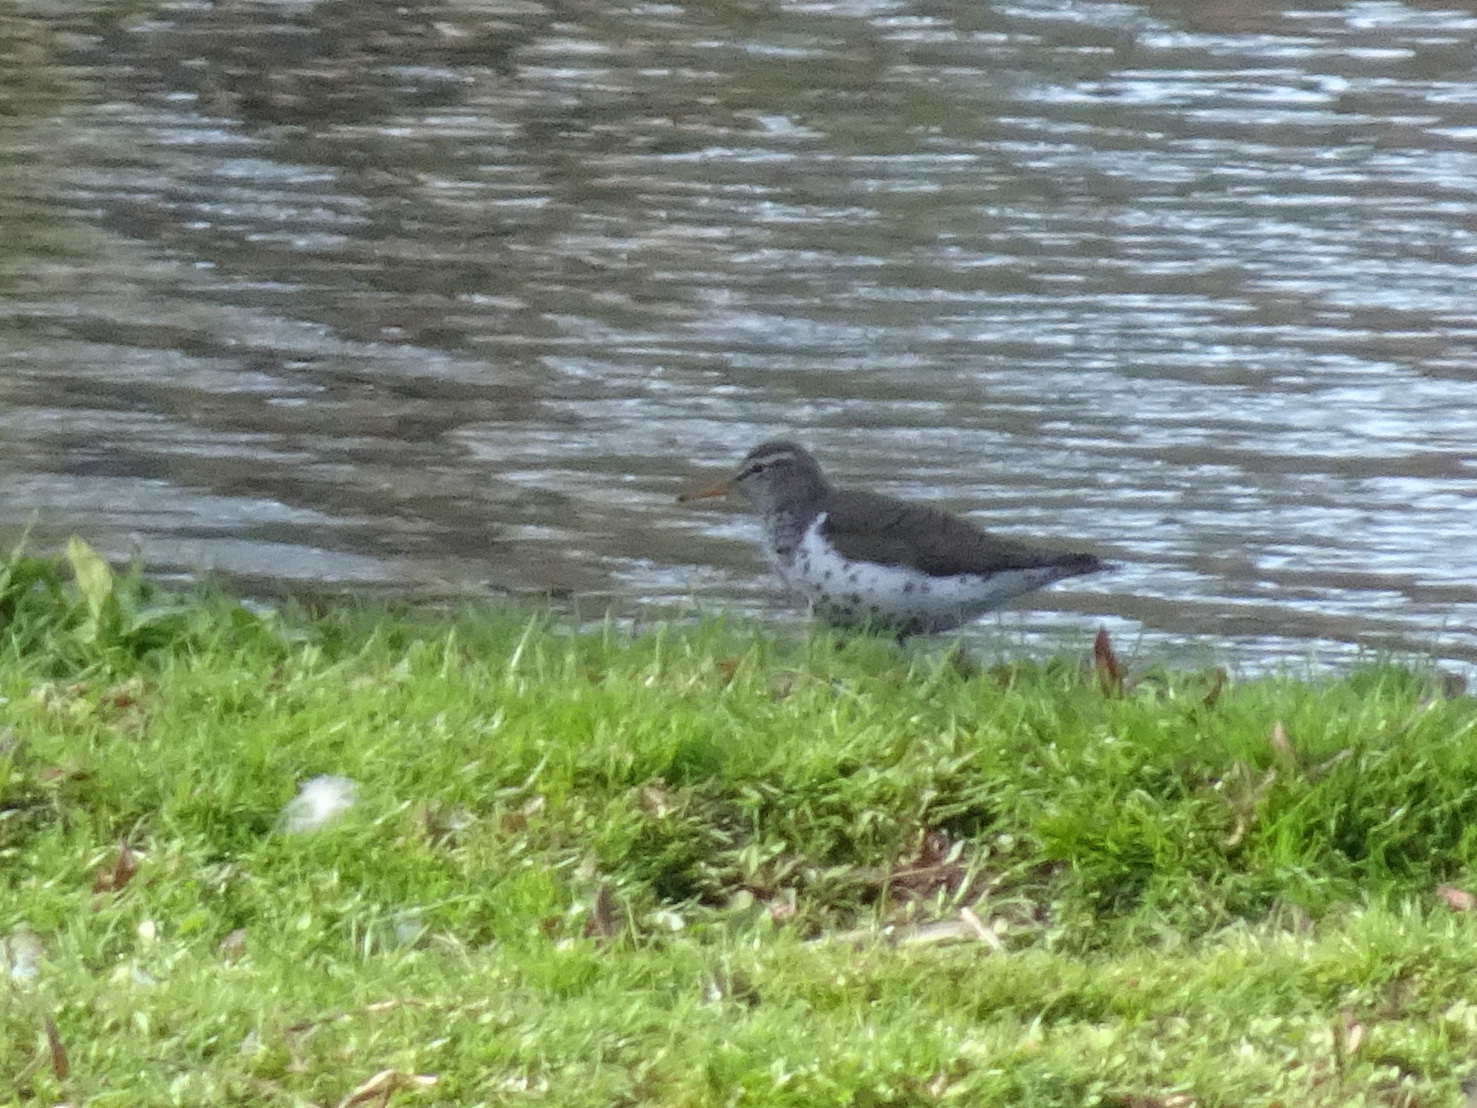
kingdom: Animalia
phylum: Chordata
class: Aves
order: Charadriiformes
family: Scolopacidae
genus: Actitis
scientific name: Actitis macularius
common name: Spotted sandpiper
